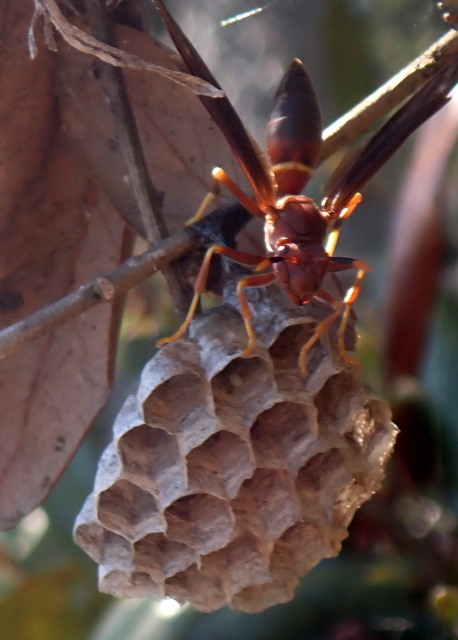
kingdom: Animalia
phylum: Arthropoda
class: Insecta
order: Hymenoptera
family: Eumenidae
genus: Polistes
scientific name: Polistes annularis
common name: Ringed paper wasp
